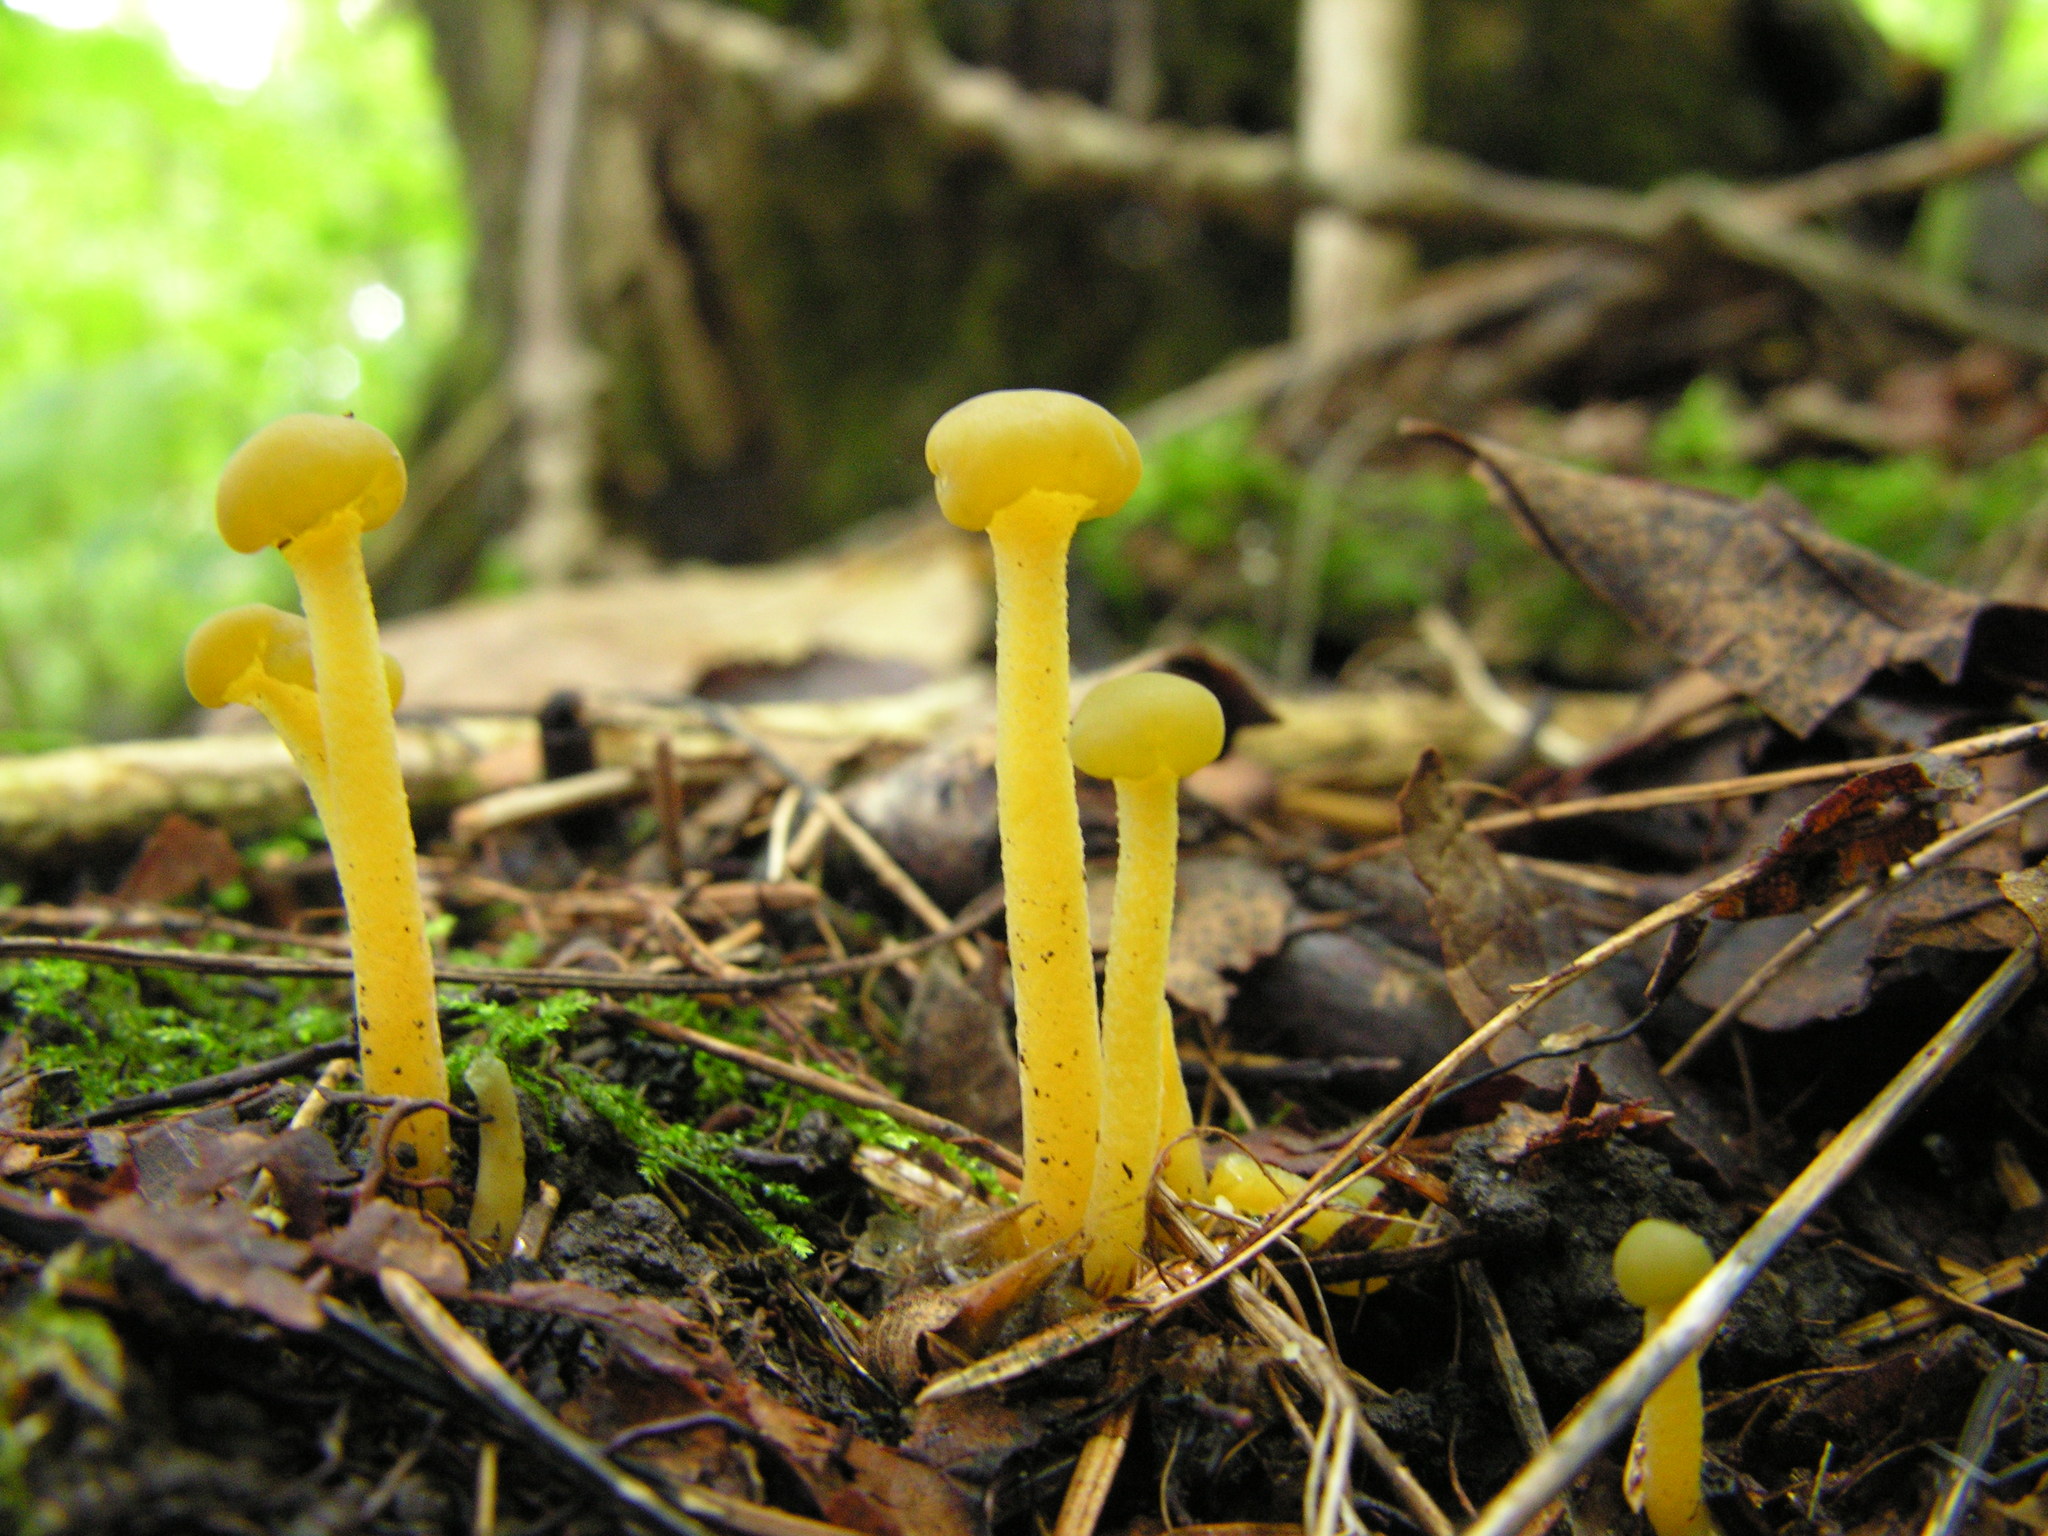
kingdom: Fungi
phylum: Ascomycota
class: Leotiomycetes
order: Leotiales
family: Leotiaceae
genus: Leotia
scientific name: Leotia lubrica
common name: Jellybaby
